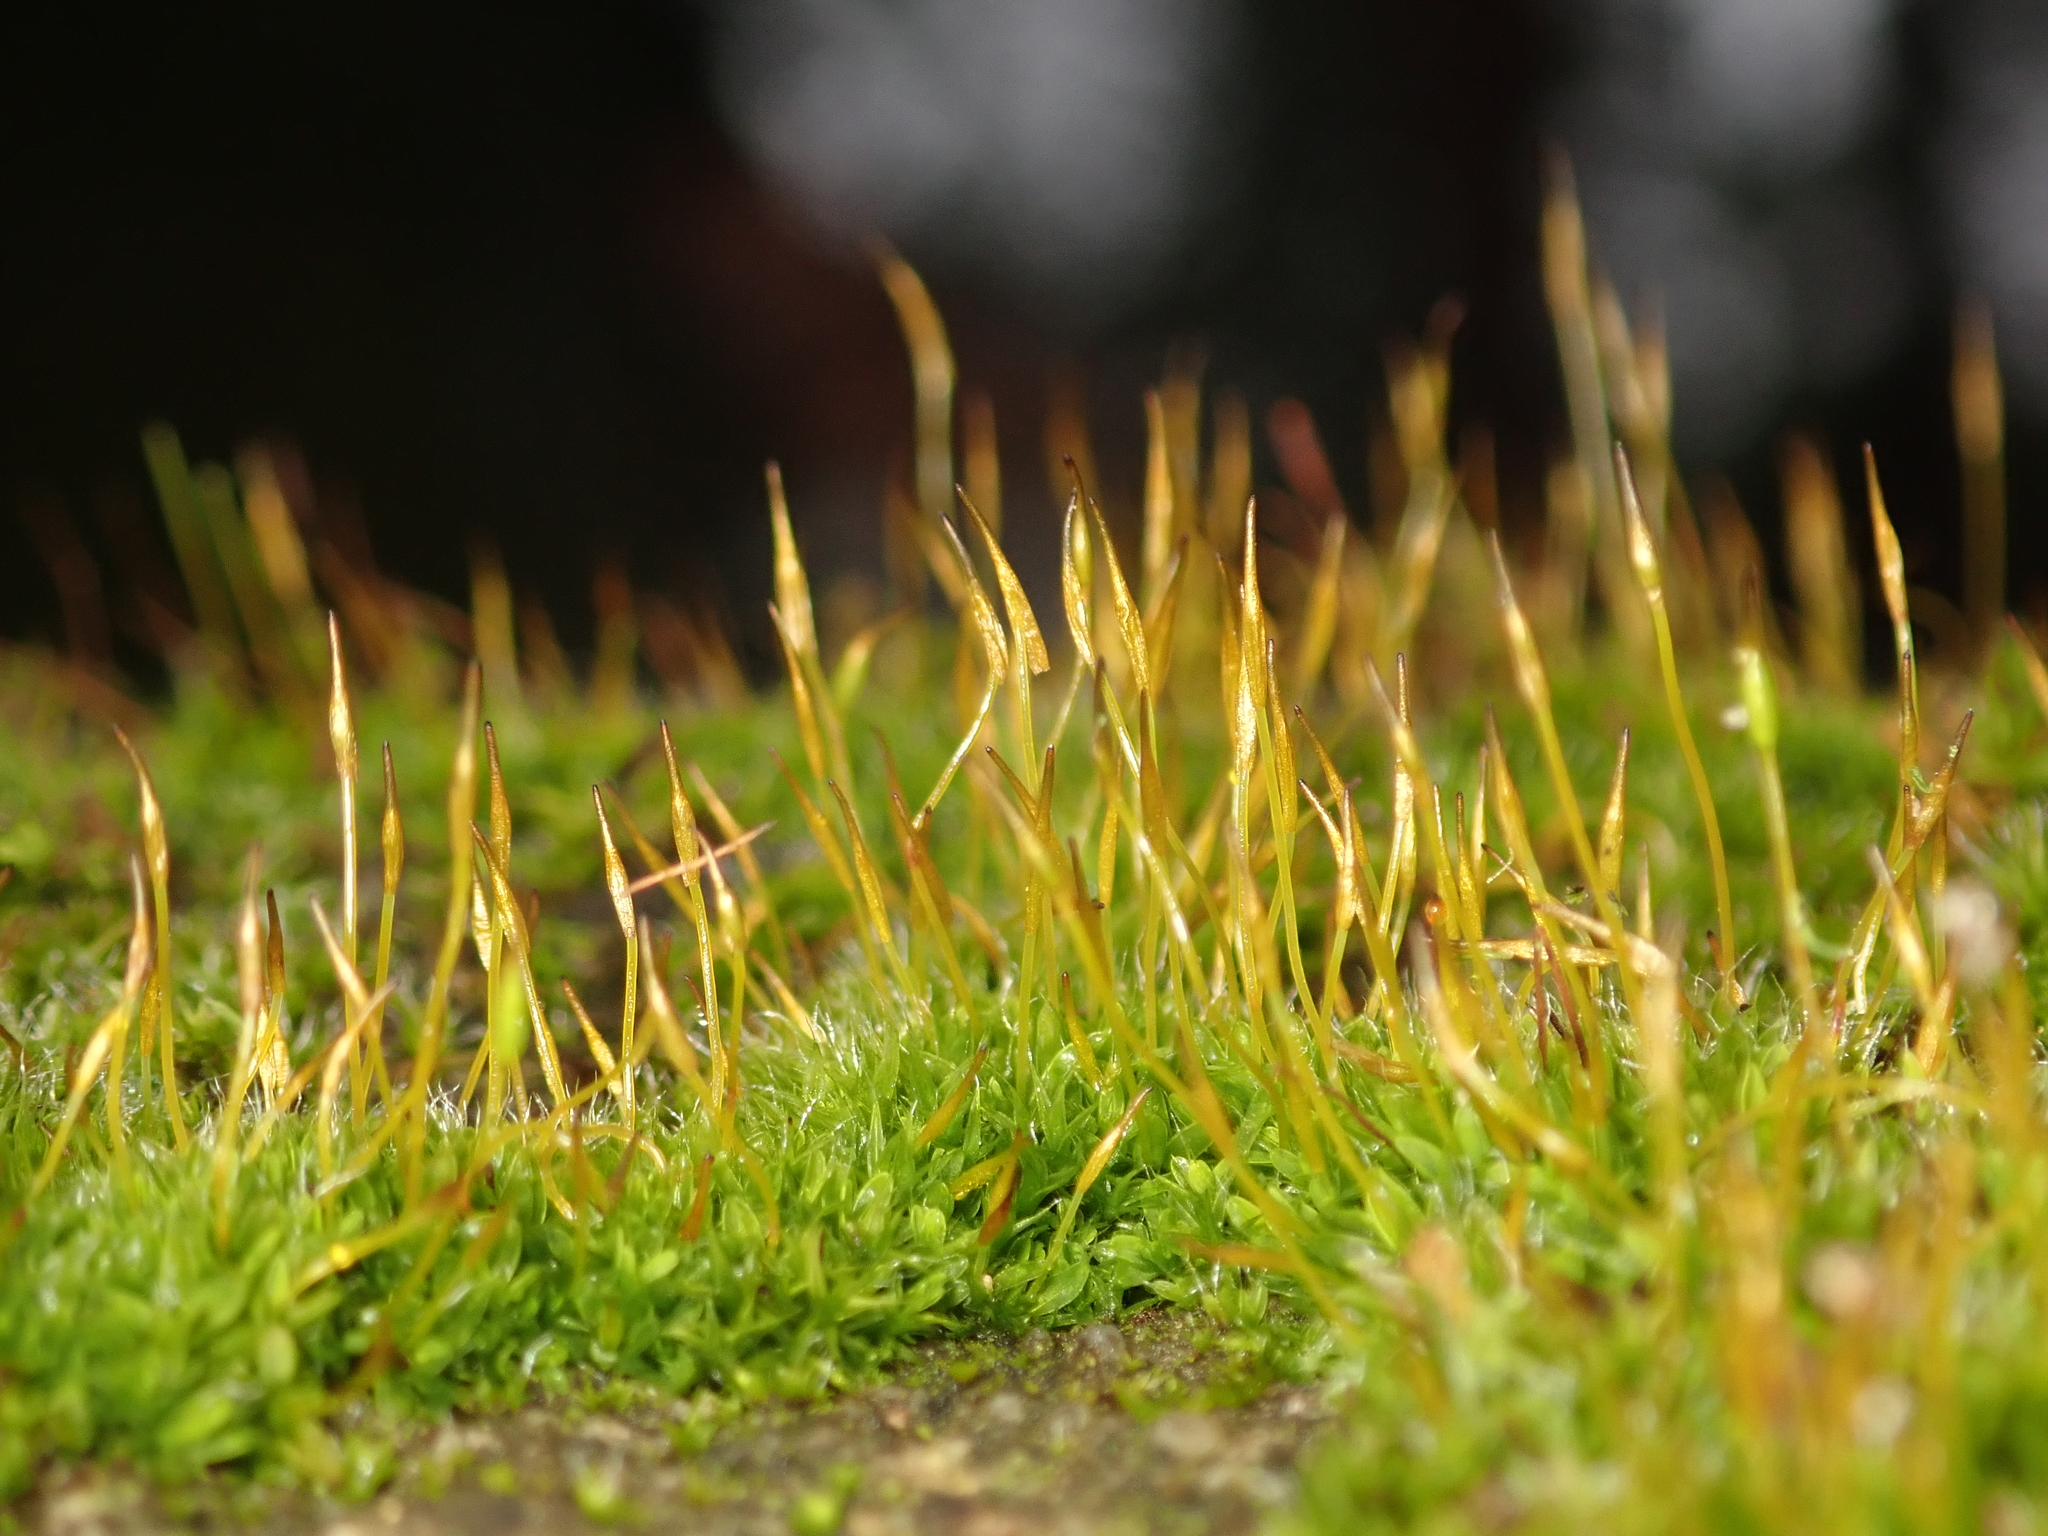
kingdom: Plantae
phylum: Bryophyta
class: Bryopsida
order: Pottiales
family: Pottiaceae
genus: Tortula
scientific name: Tortula muralis
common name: Wall screw-moss
